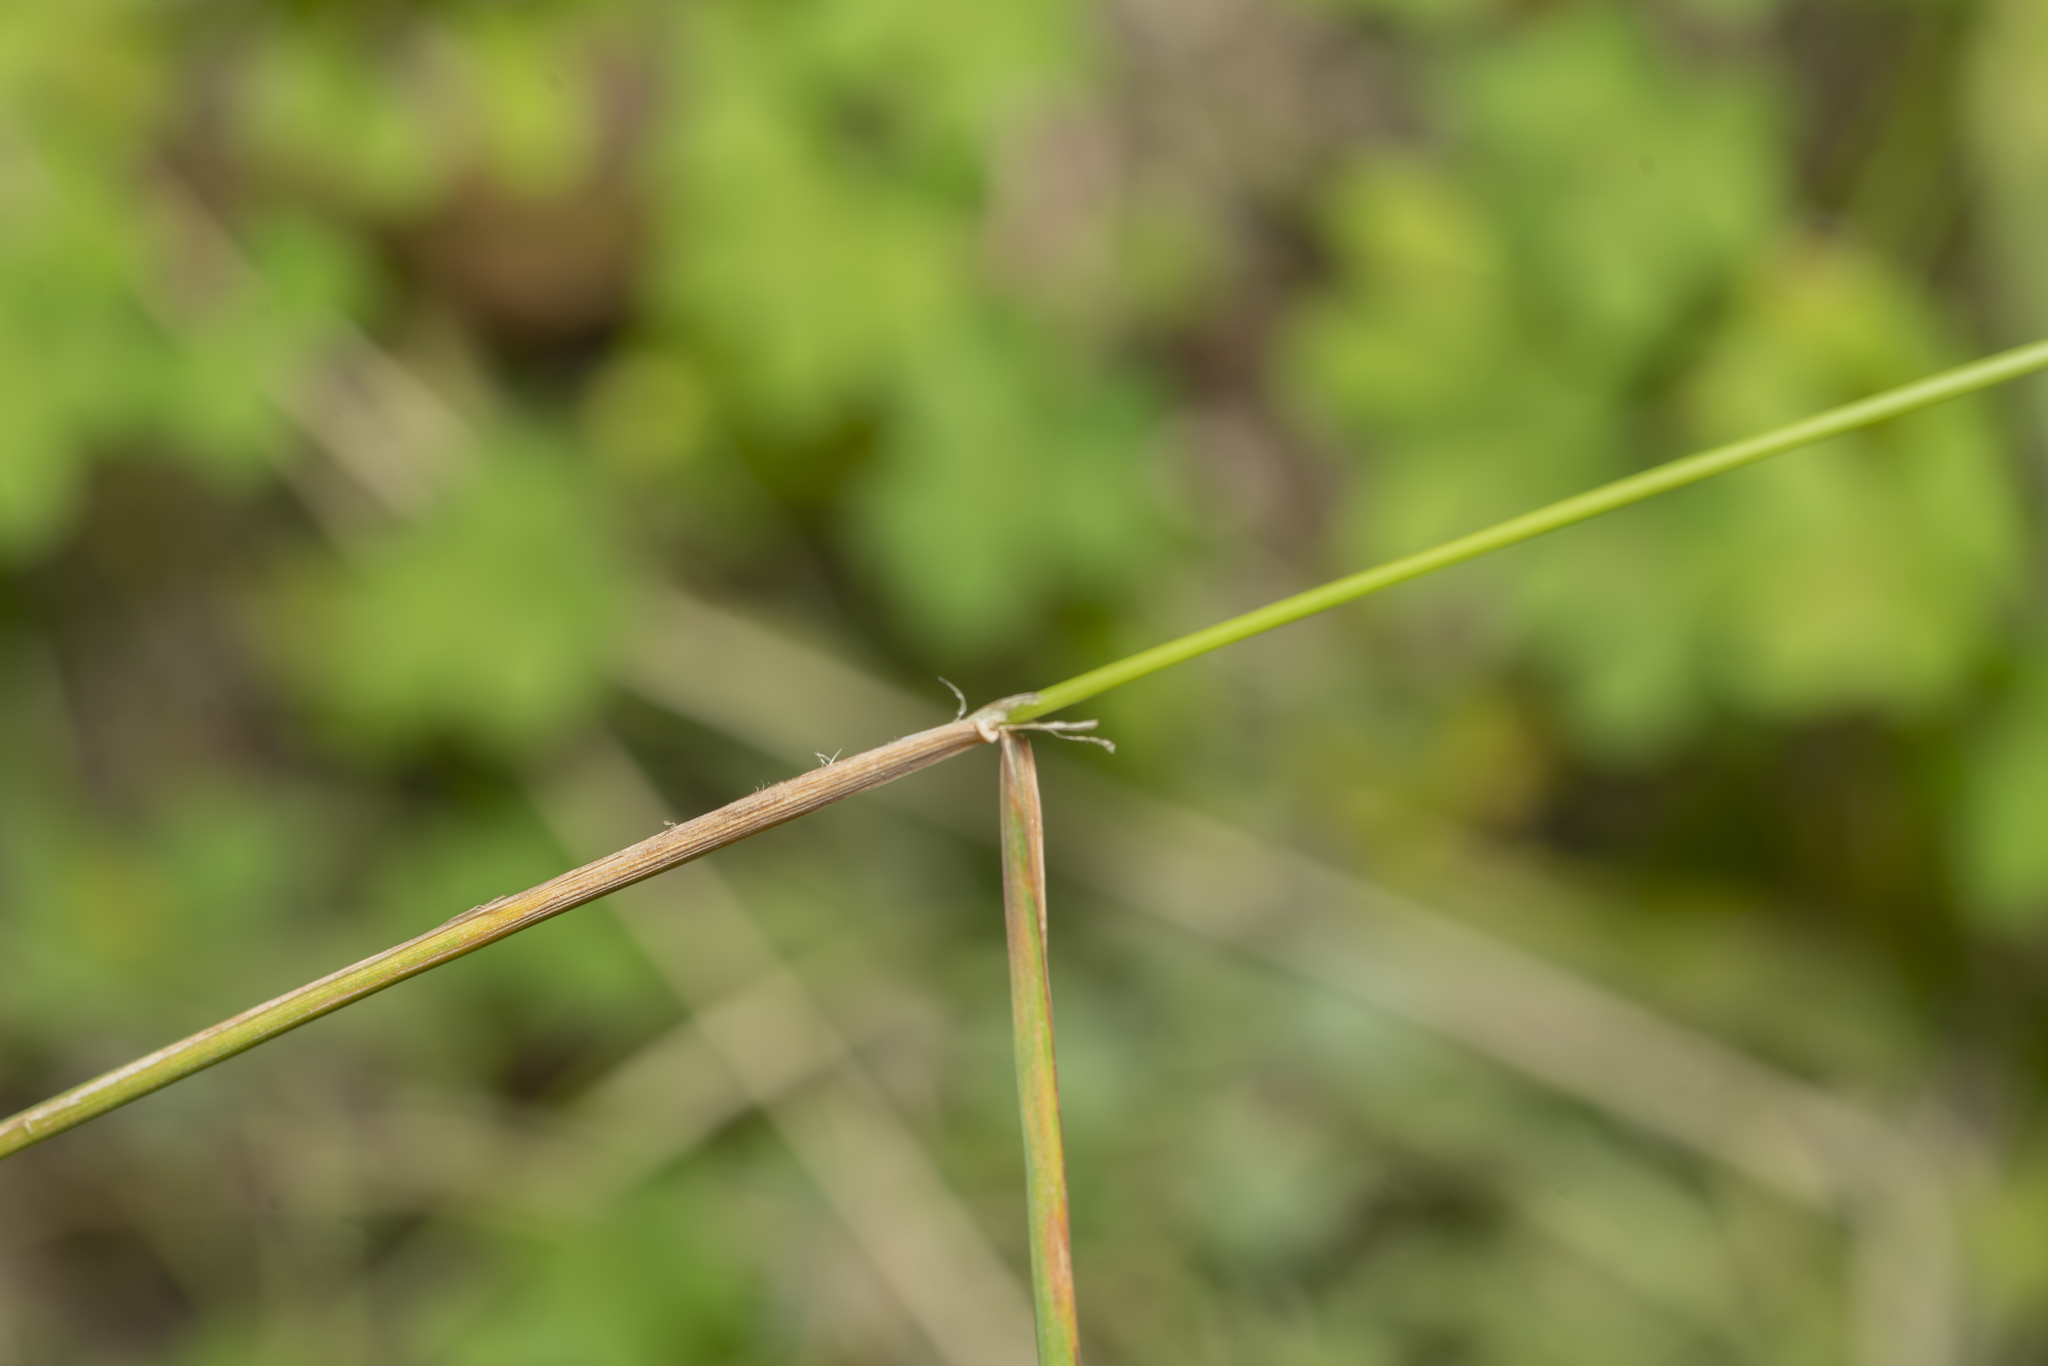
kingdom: Plantae
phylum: Tracheophyta
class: Liliopsida
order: Poales
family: Poaceae
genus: Dactylis
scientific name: Dactylis glomerata
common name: Orchardgrass
